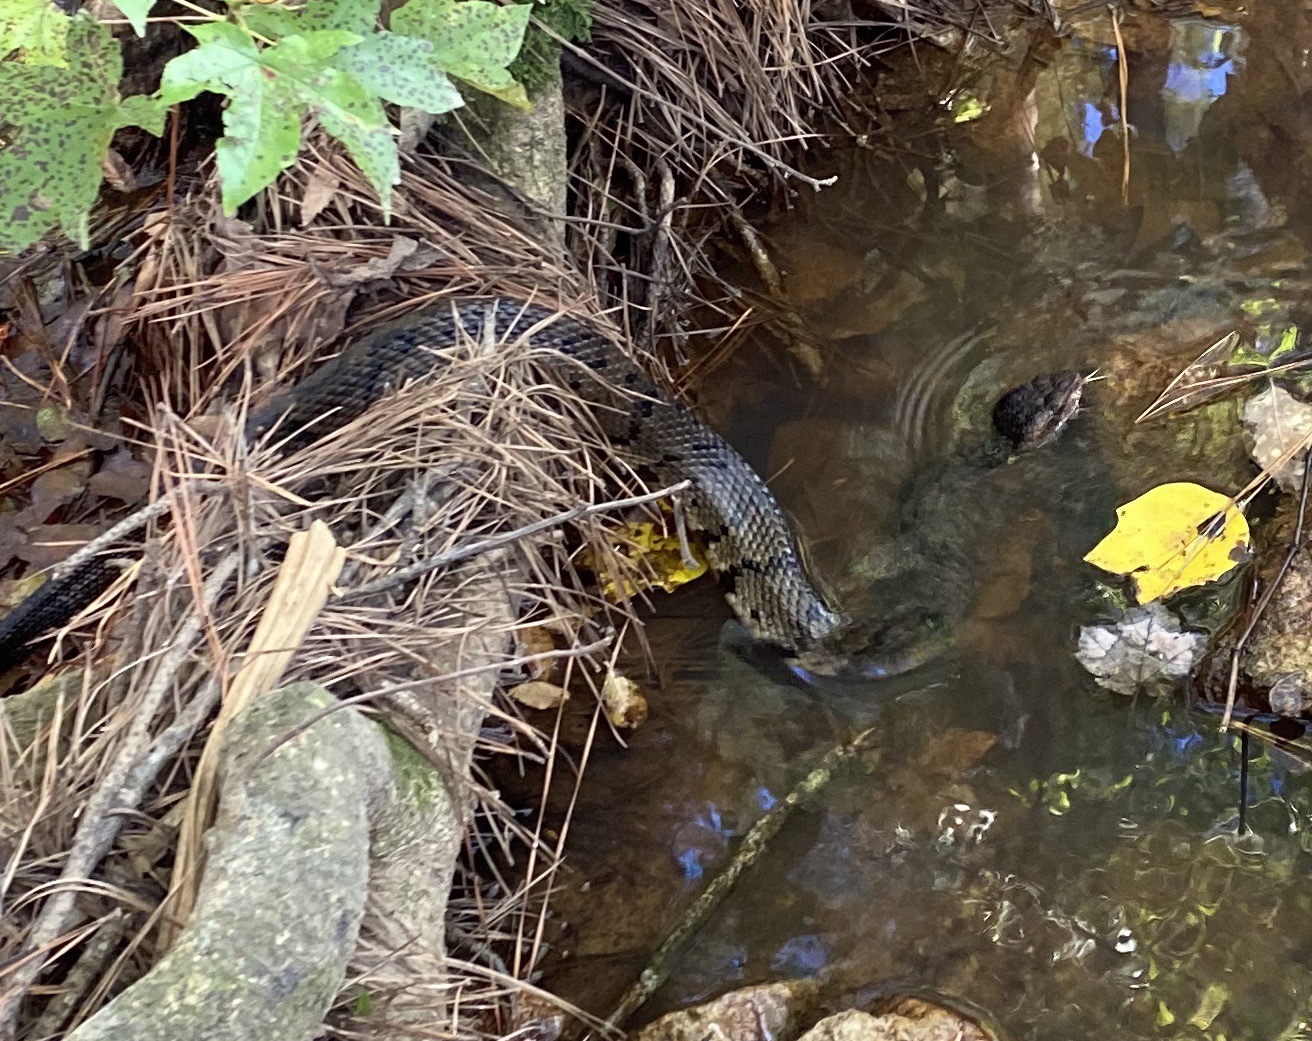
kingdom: Animalia
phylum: Chordata
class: Squamata
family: Viperidae
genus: Agkistrodon
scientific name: Agkistrodon piscivorus
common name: Cottonmouth
